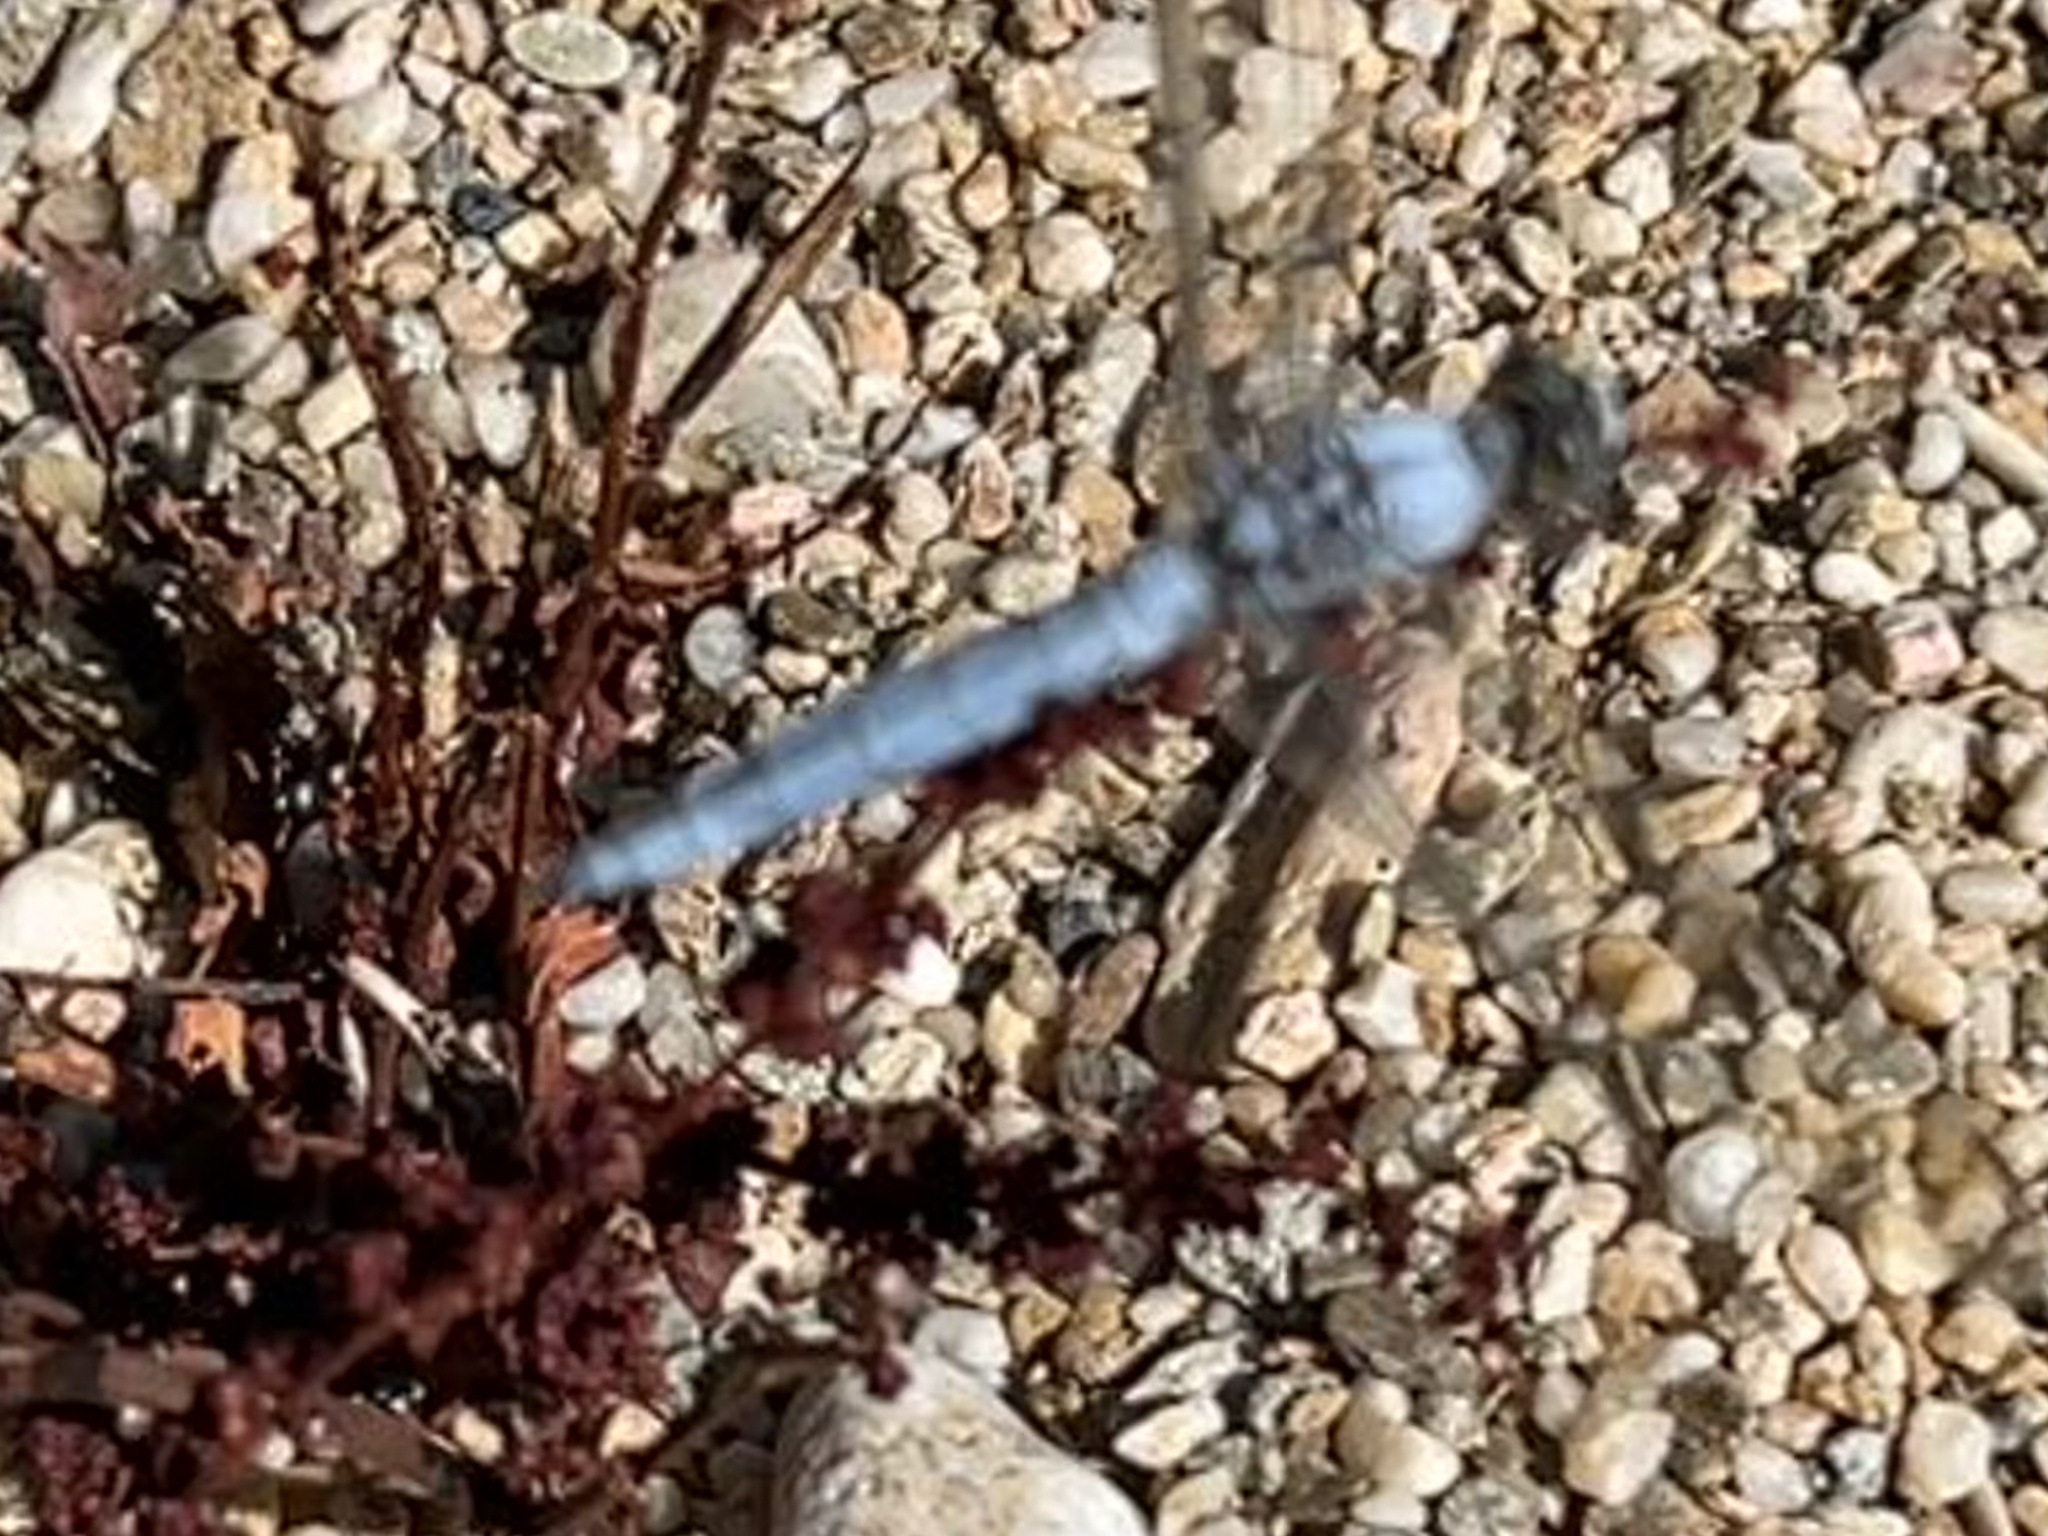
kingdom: Animalia
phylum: Arthropoda
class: Insecta
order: Odonata
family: Libellulidae
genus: Orthetrum
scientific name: Orthetrum brunneum
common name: Southern skimmer
